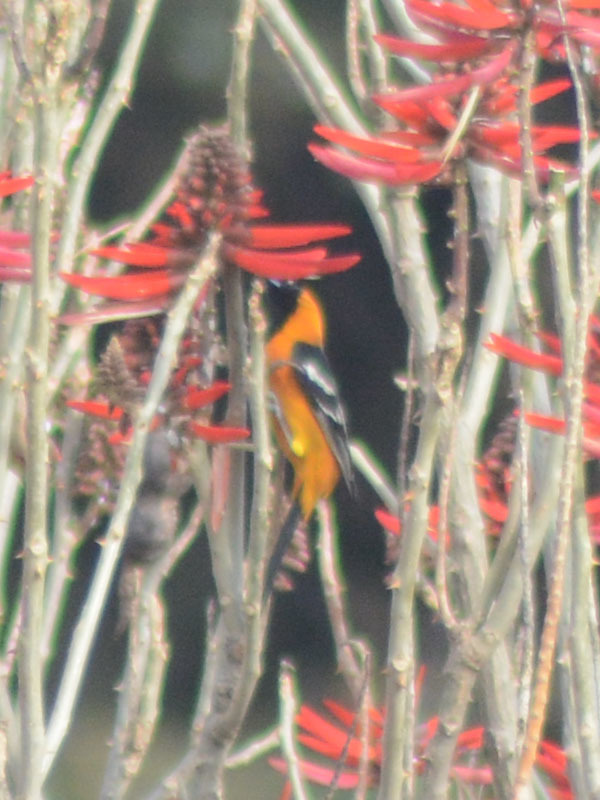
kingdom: Animalia
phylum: Chordata
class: Aves
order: Passeriformes
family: Icteridae
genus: Icterus
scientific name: Icterus cucullatus
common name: Hooded oriole
